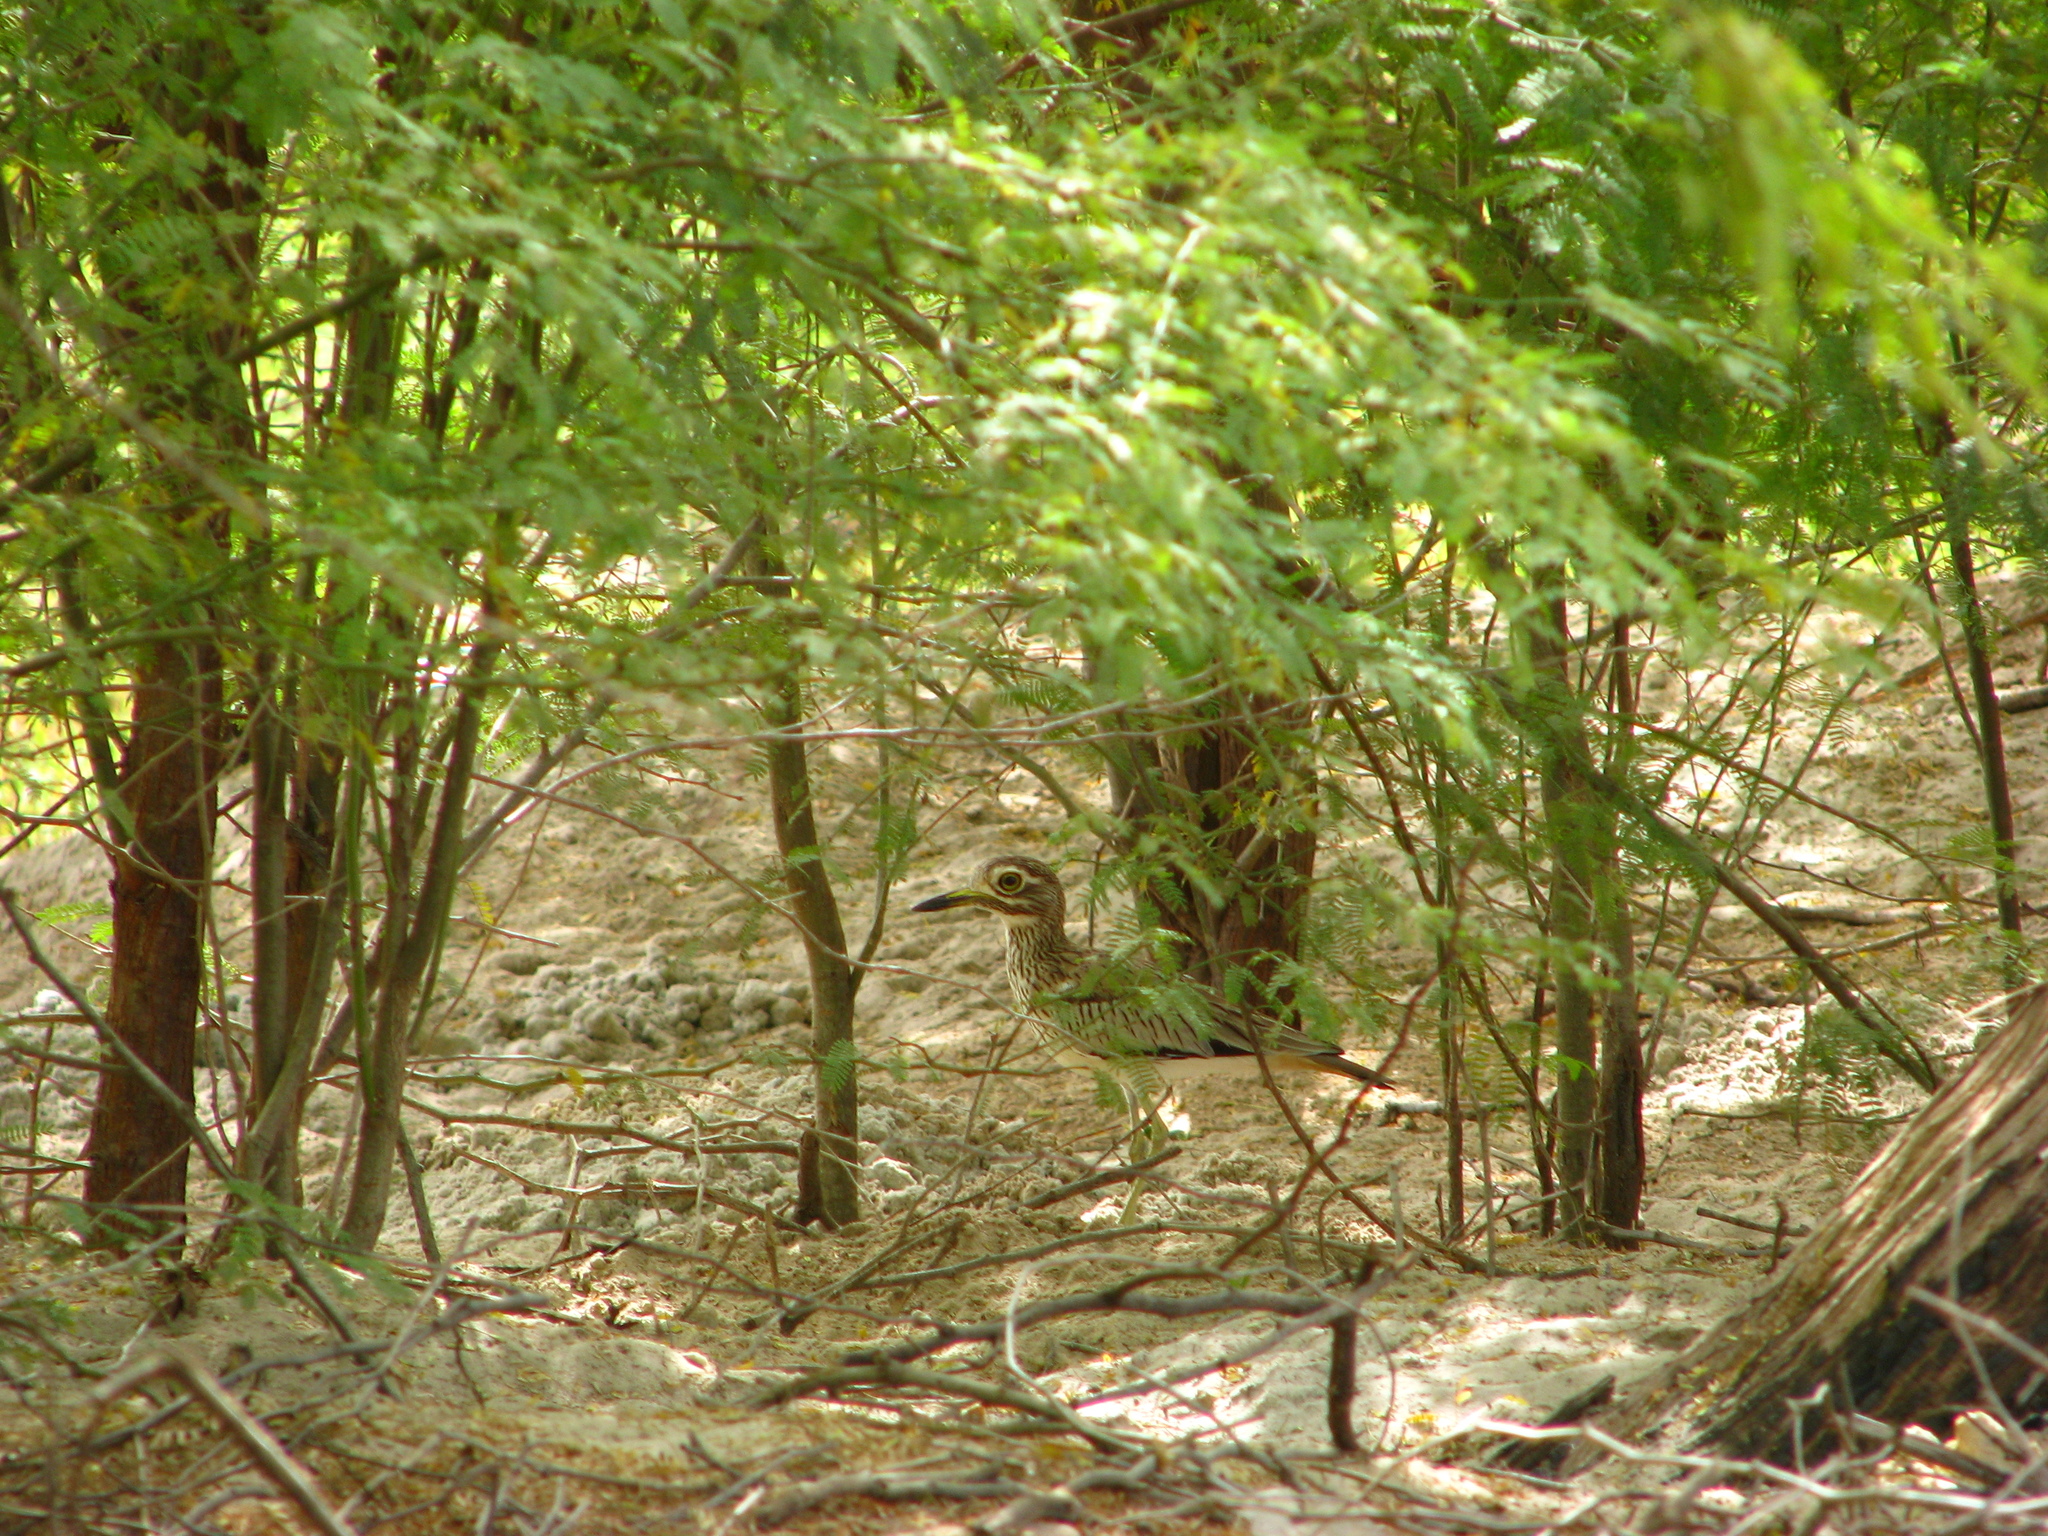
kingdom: Animalia
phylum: Chordata
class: Aves
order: Charadriiformes
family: Burhinidae
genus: Burhinus
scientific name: Burhinus senegalensis
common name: Senegal thick-knee
